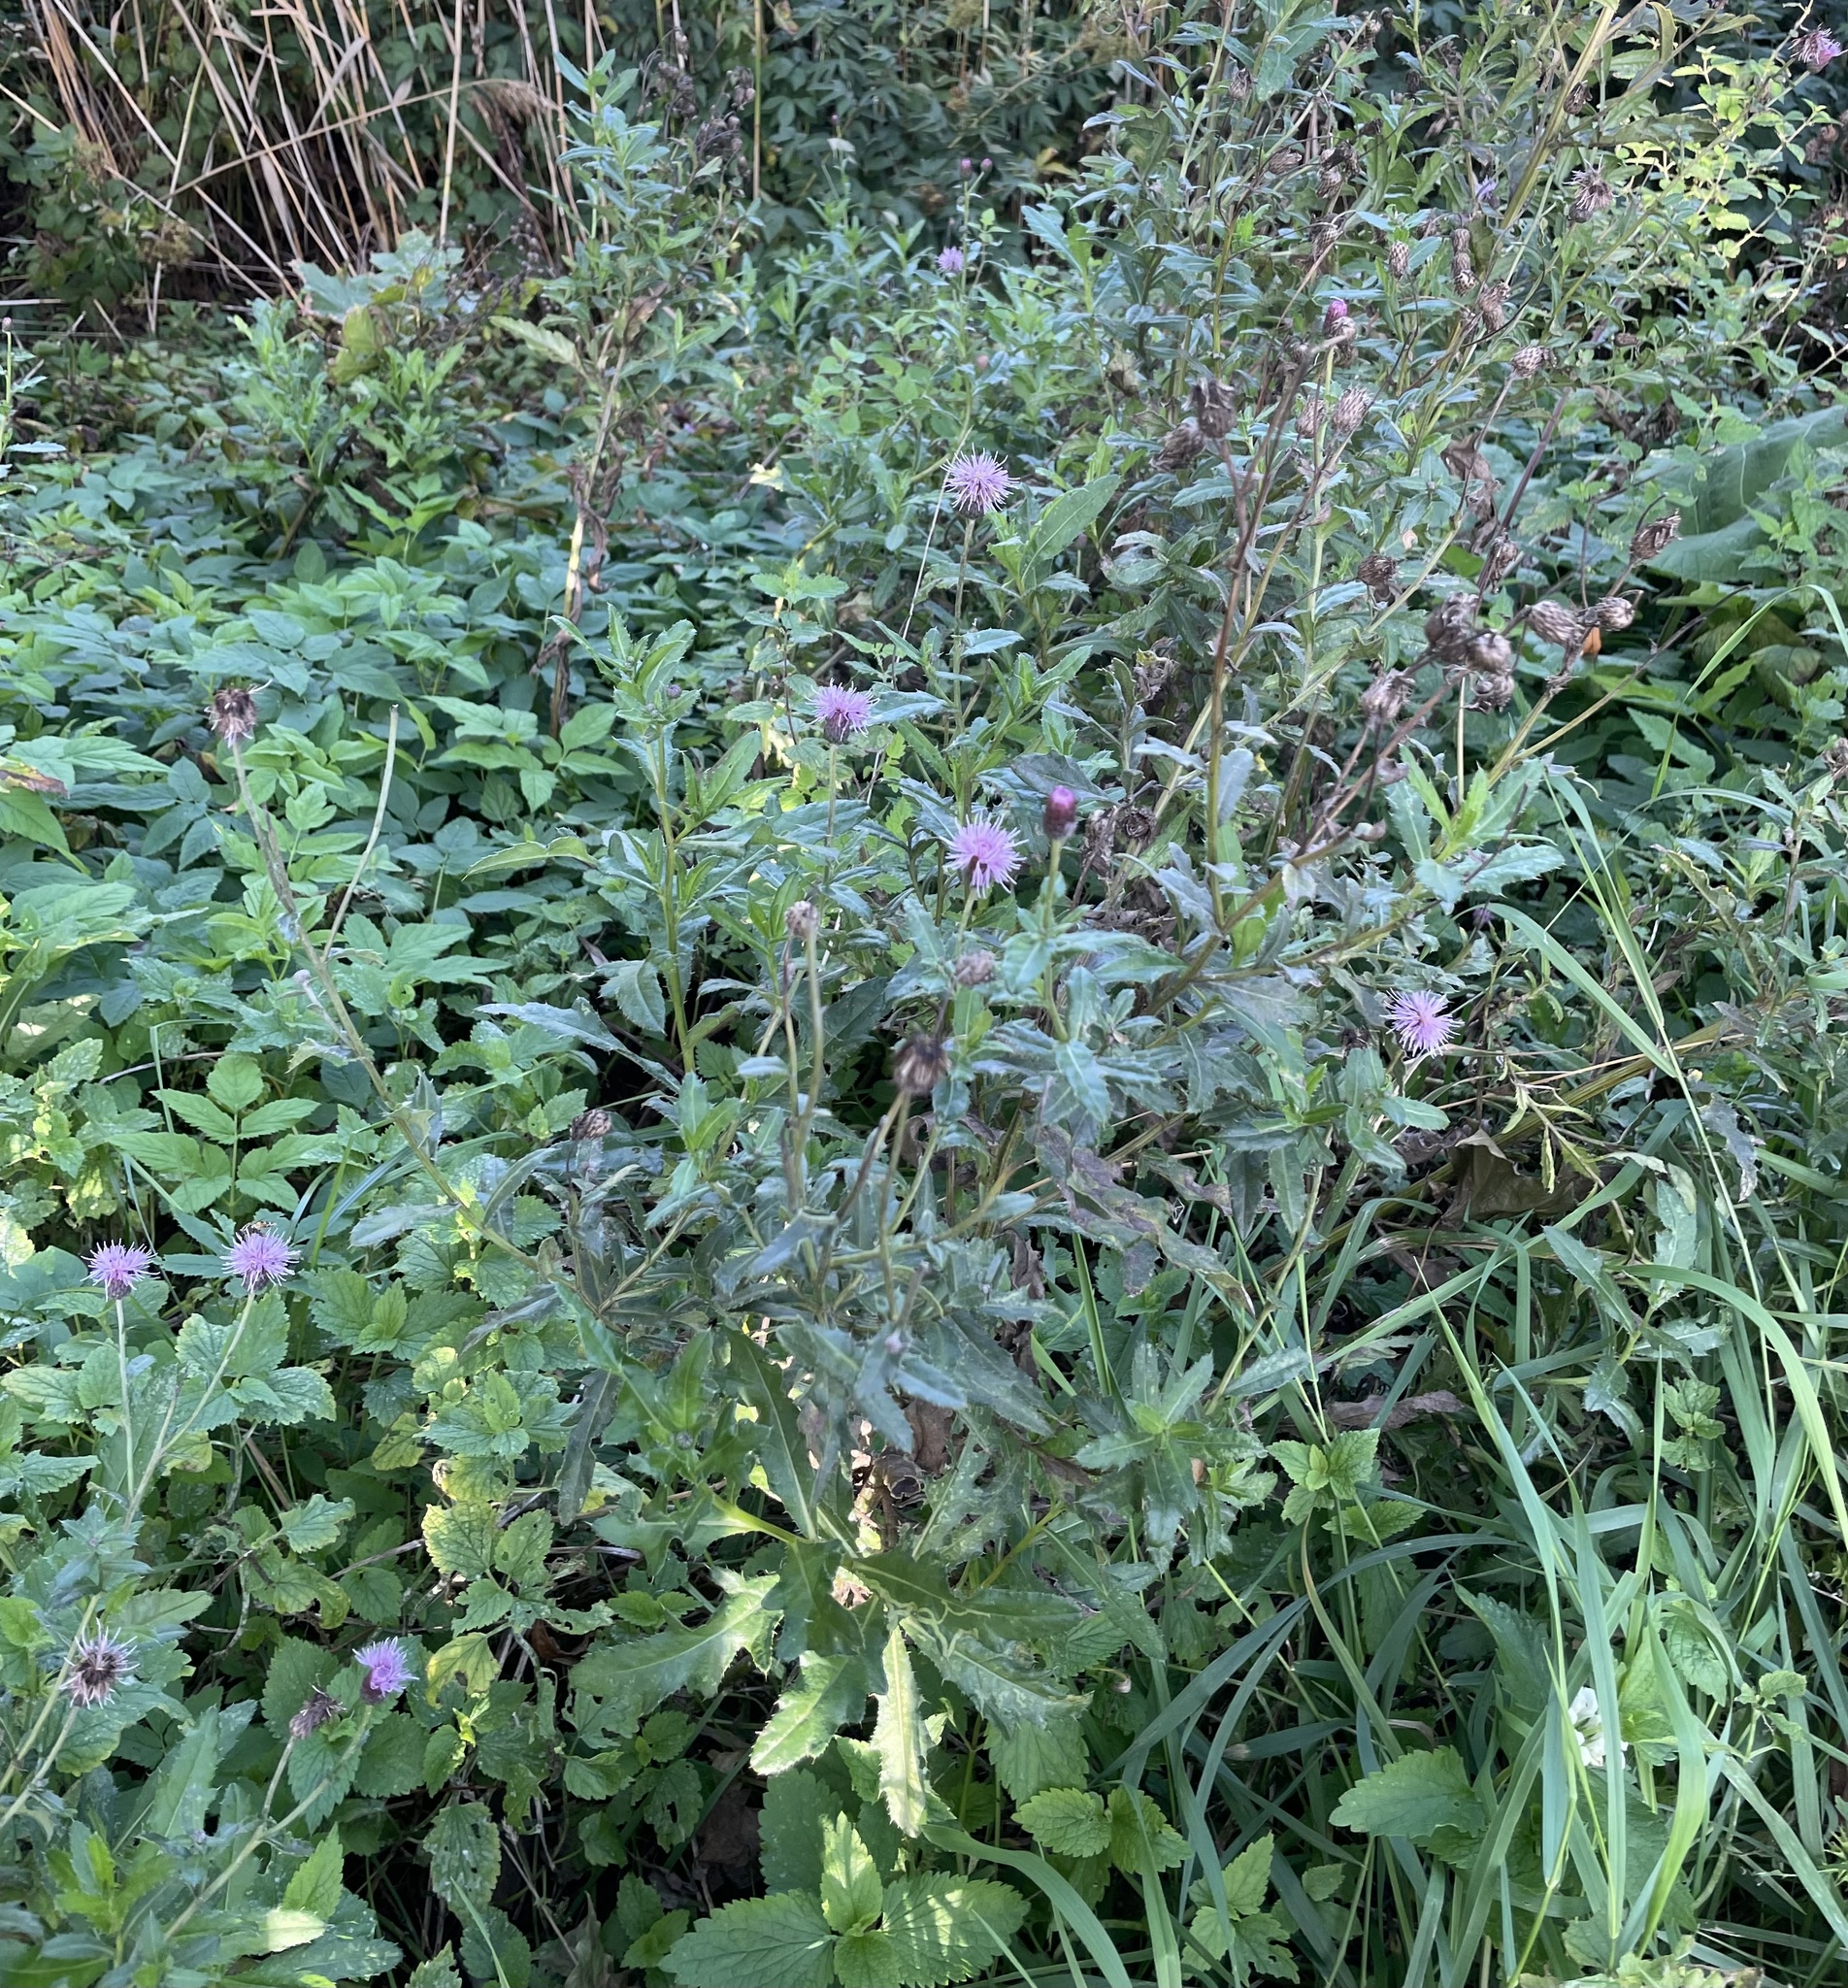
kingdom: Plantae
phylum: Tracheophyta
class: Magnoliopsida
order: Asterales
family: Asteraceae
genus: Cirsium
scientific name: Cirsium arvense
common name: Creeping thistle
